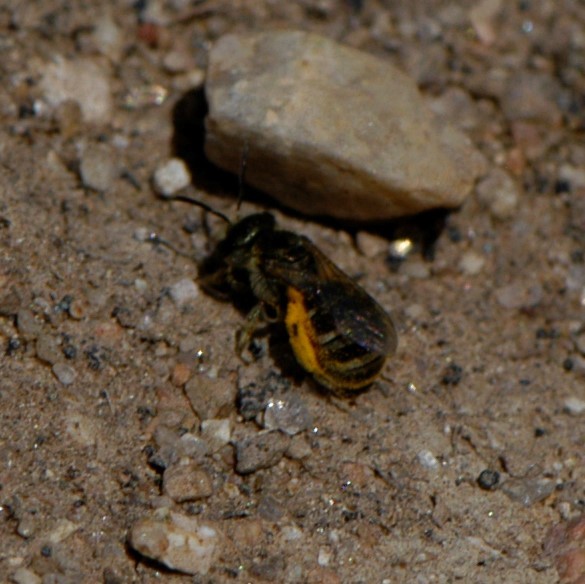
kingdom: Animalia
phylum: Arthropoda
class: Insecta
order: Hymenoptera
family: Halictidae
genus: Halictus
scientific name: Halictus tripartitus
